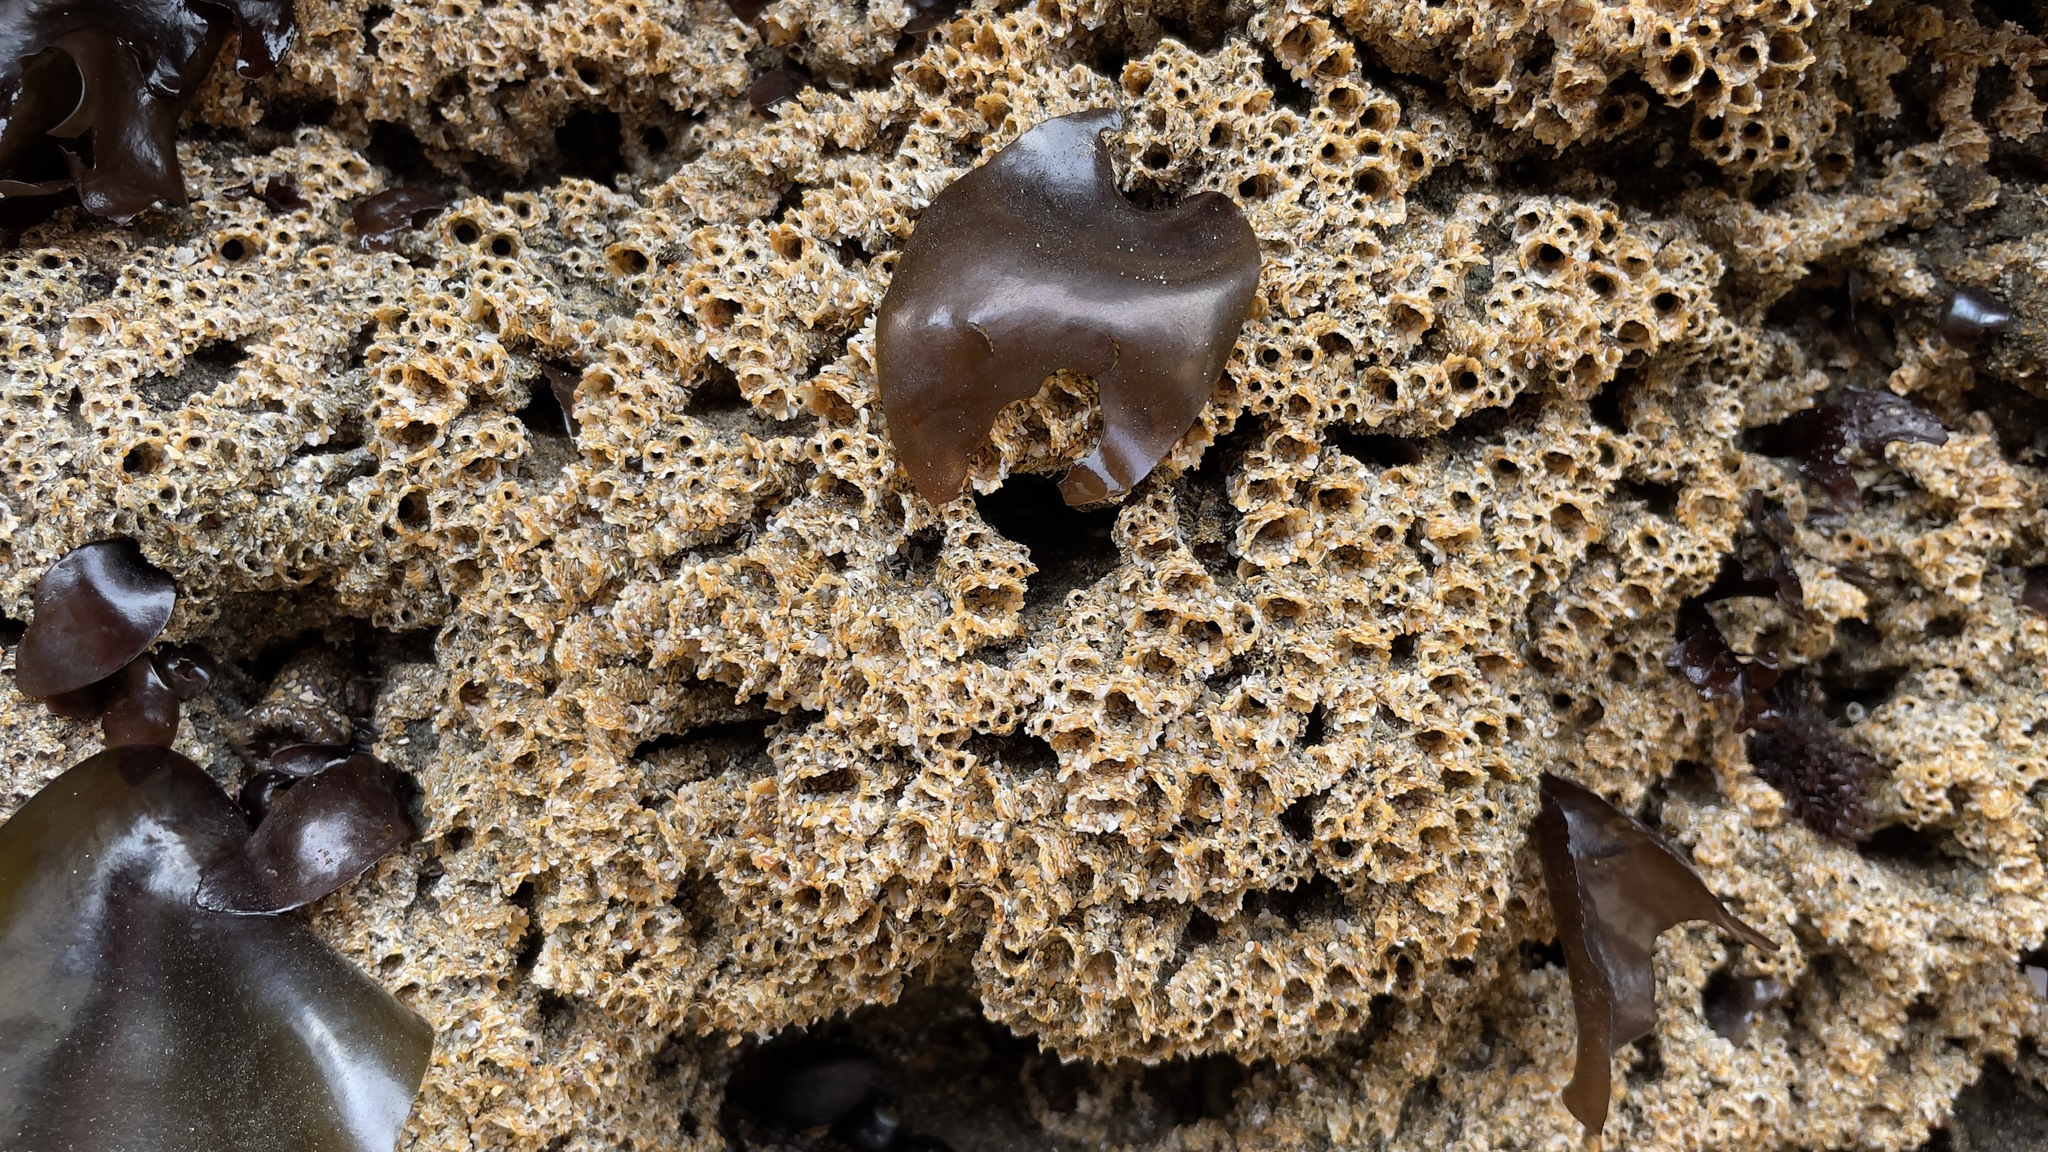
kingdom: Animalia
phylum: Annelida
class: Polychaeta
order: Sabellida
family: Sabellariidae
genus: Phragmatopoma
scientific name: Phragmatopoma californica
